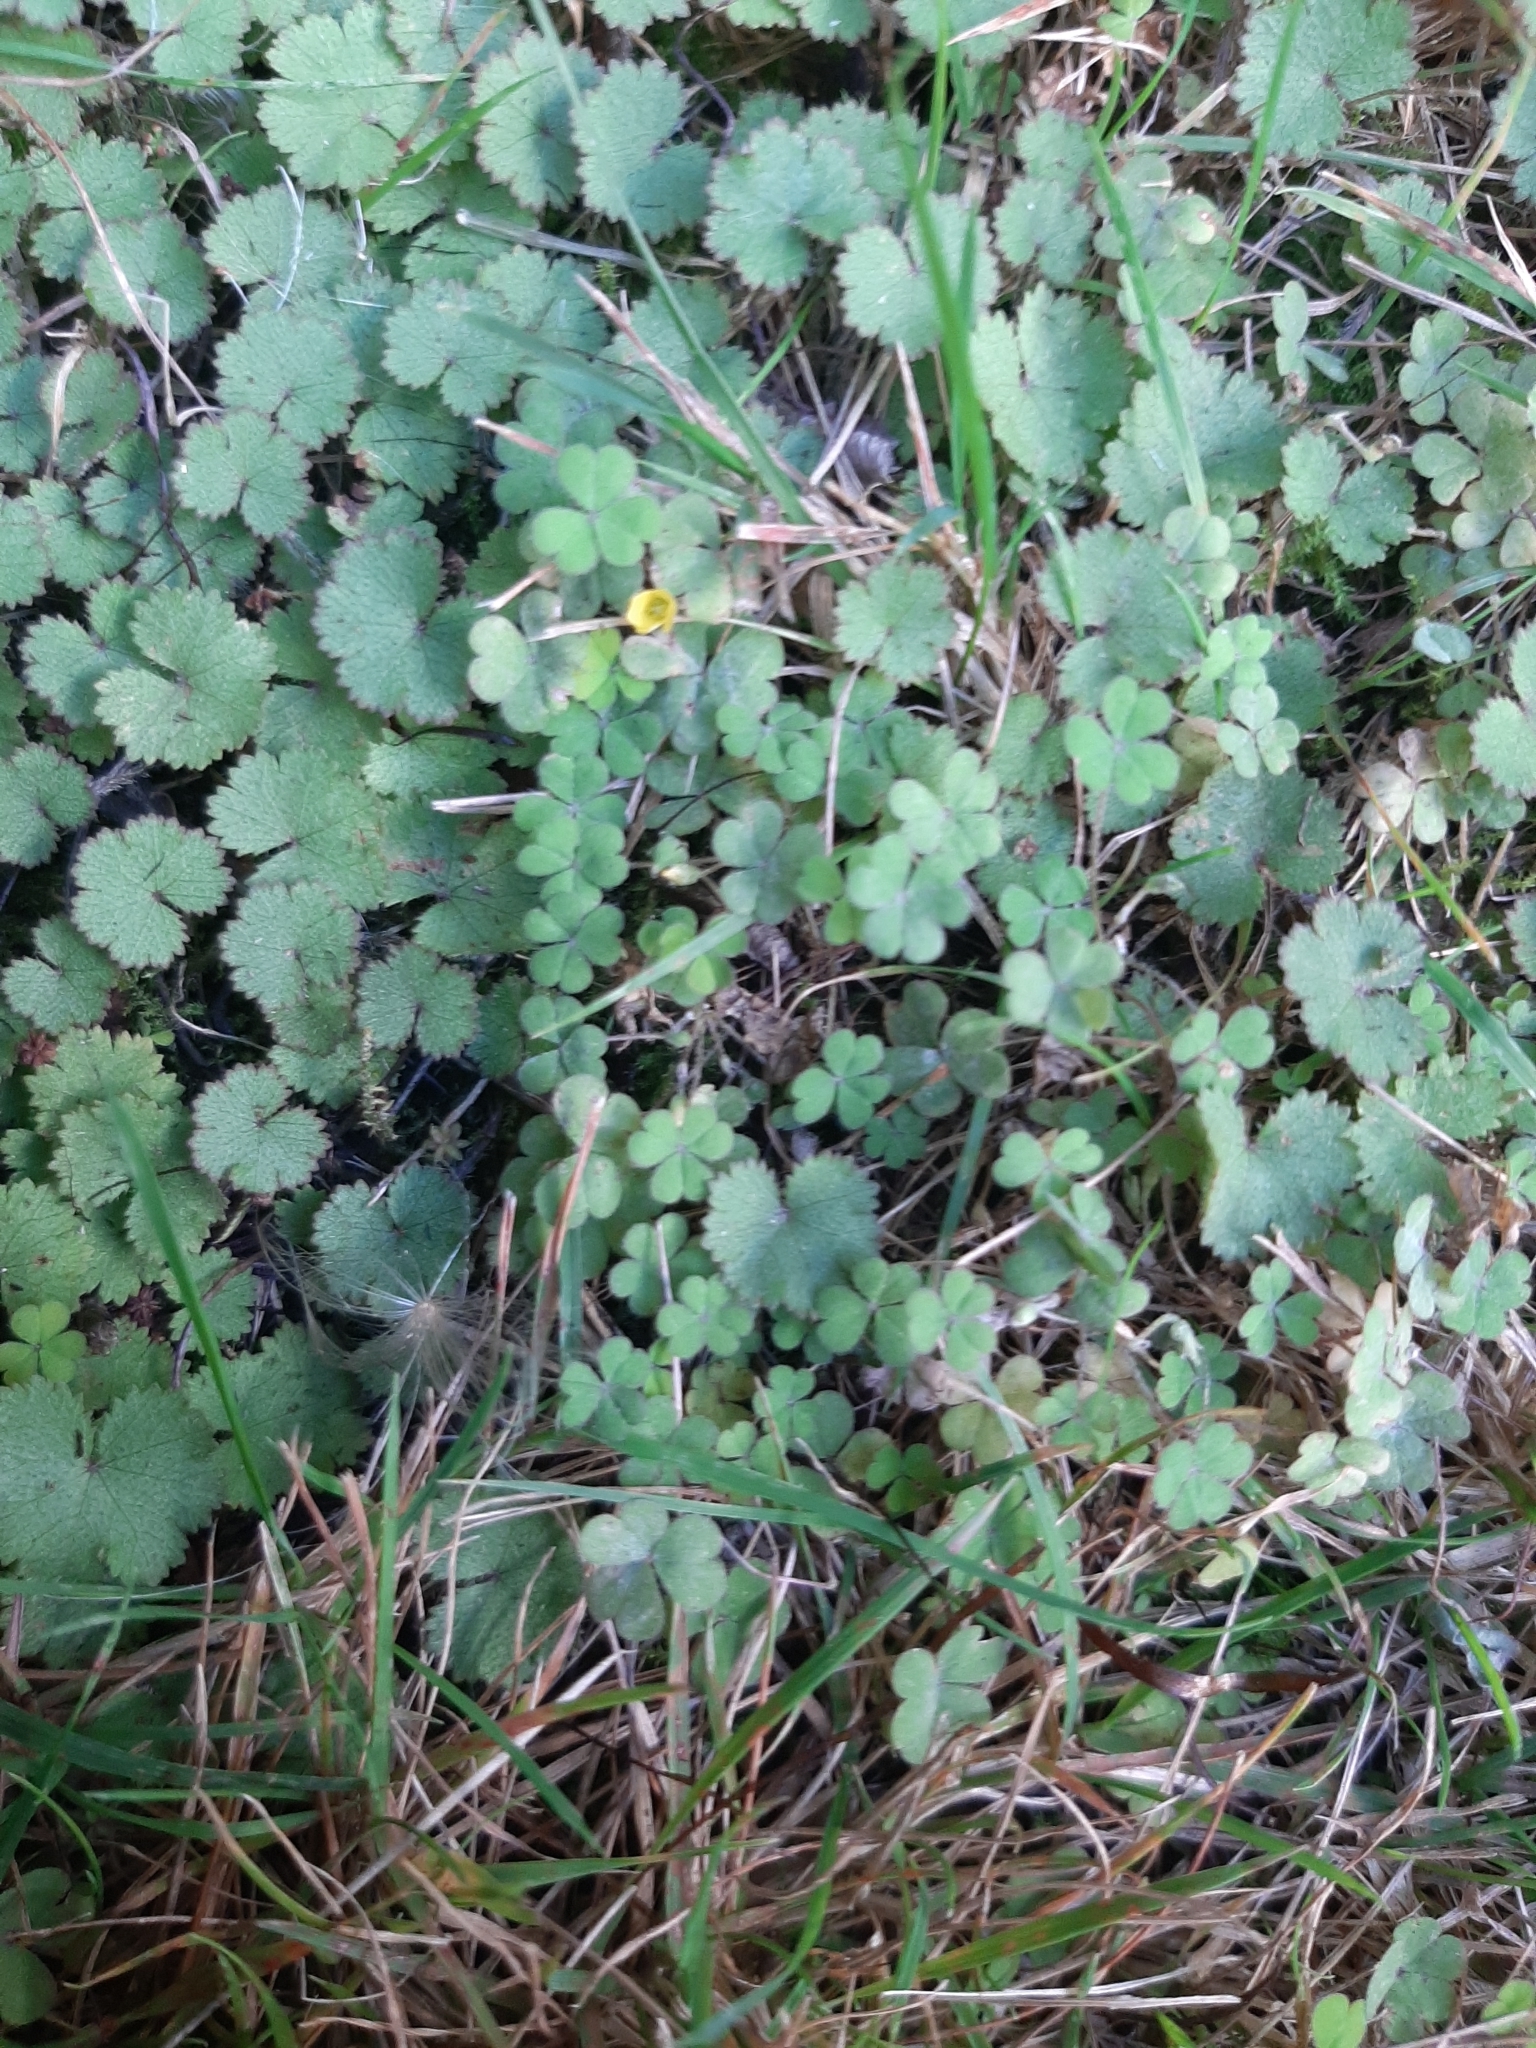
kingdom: Plantae
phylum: Tracheophyta
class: Magnoliopsida
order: Oxalidales
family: Oxalidaceae
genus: Oxalis
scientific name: Oxalis exilis
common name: Least yellow-sorrel
